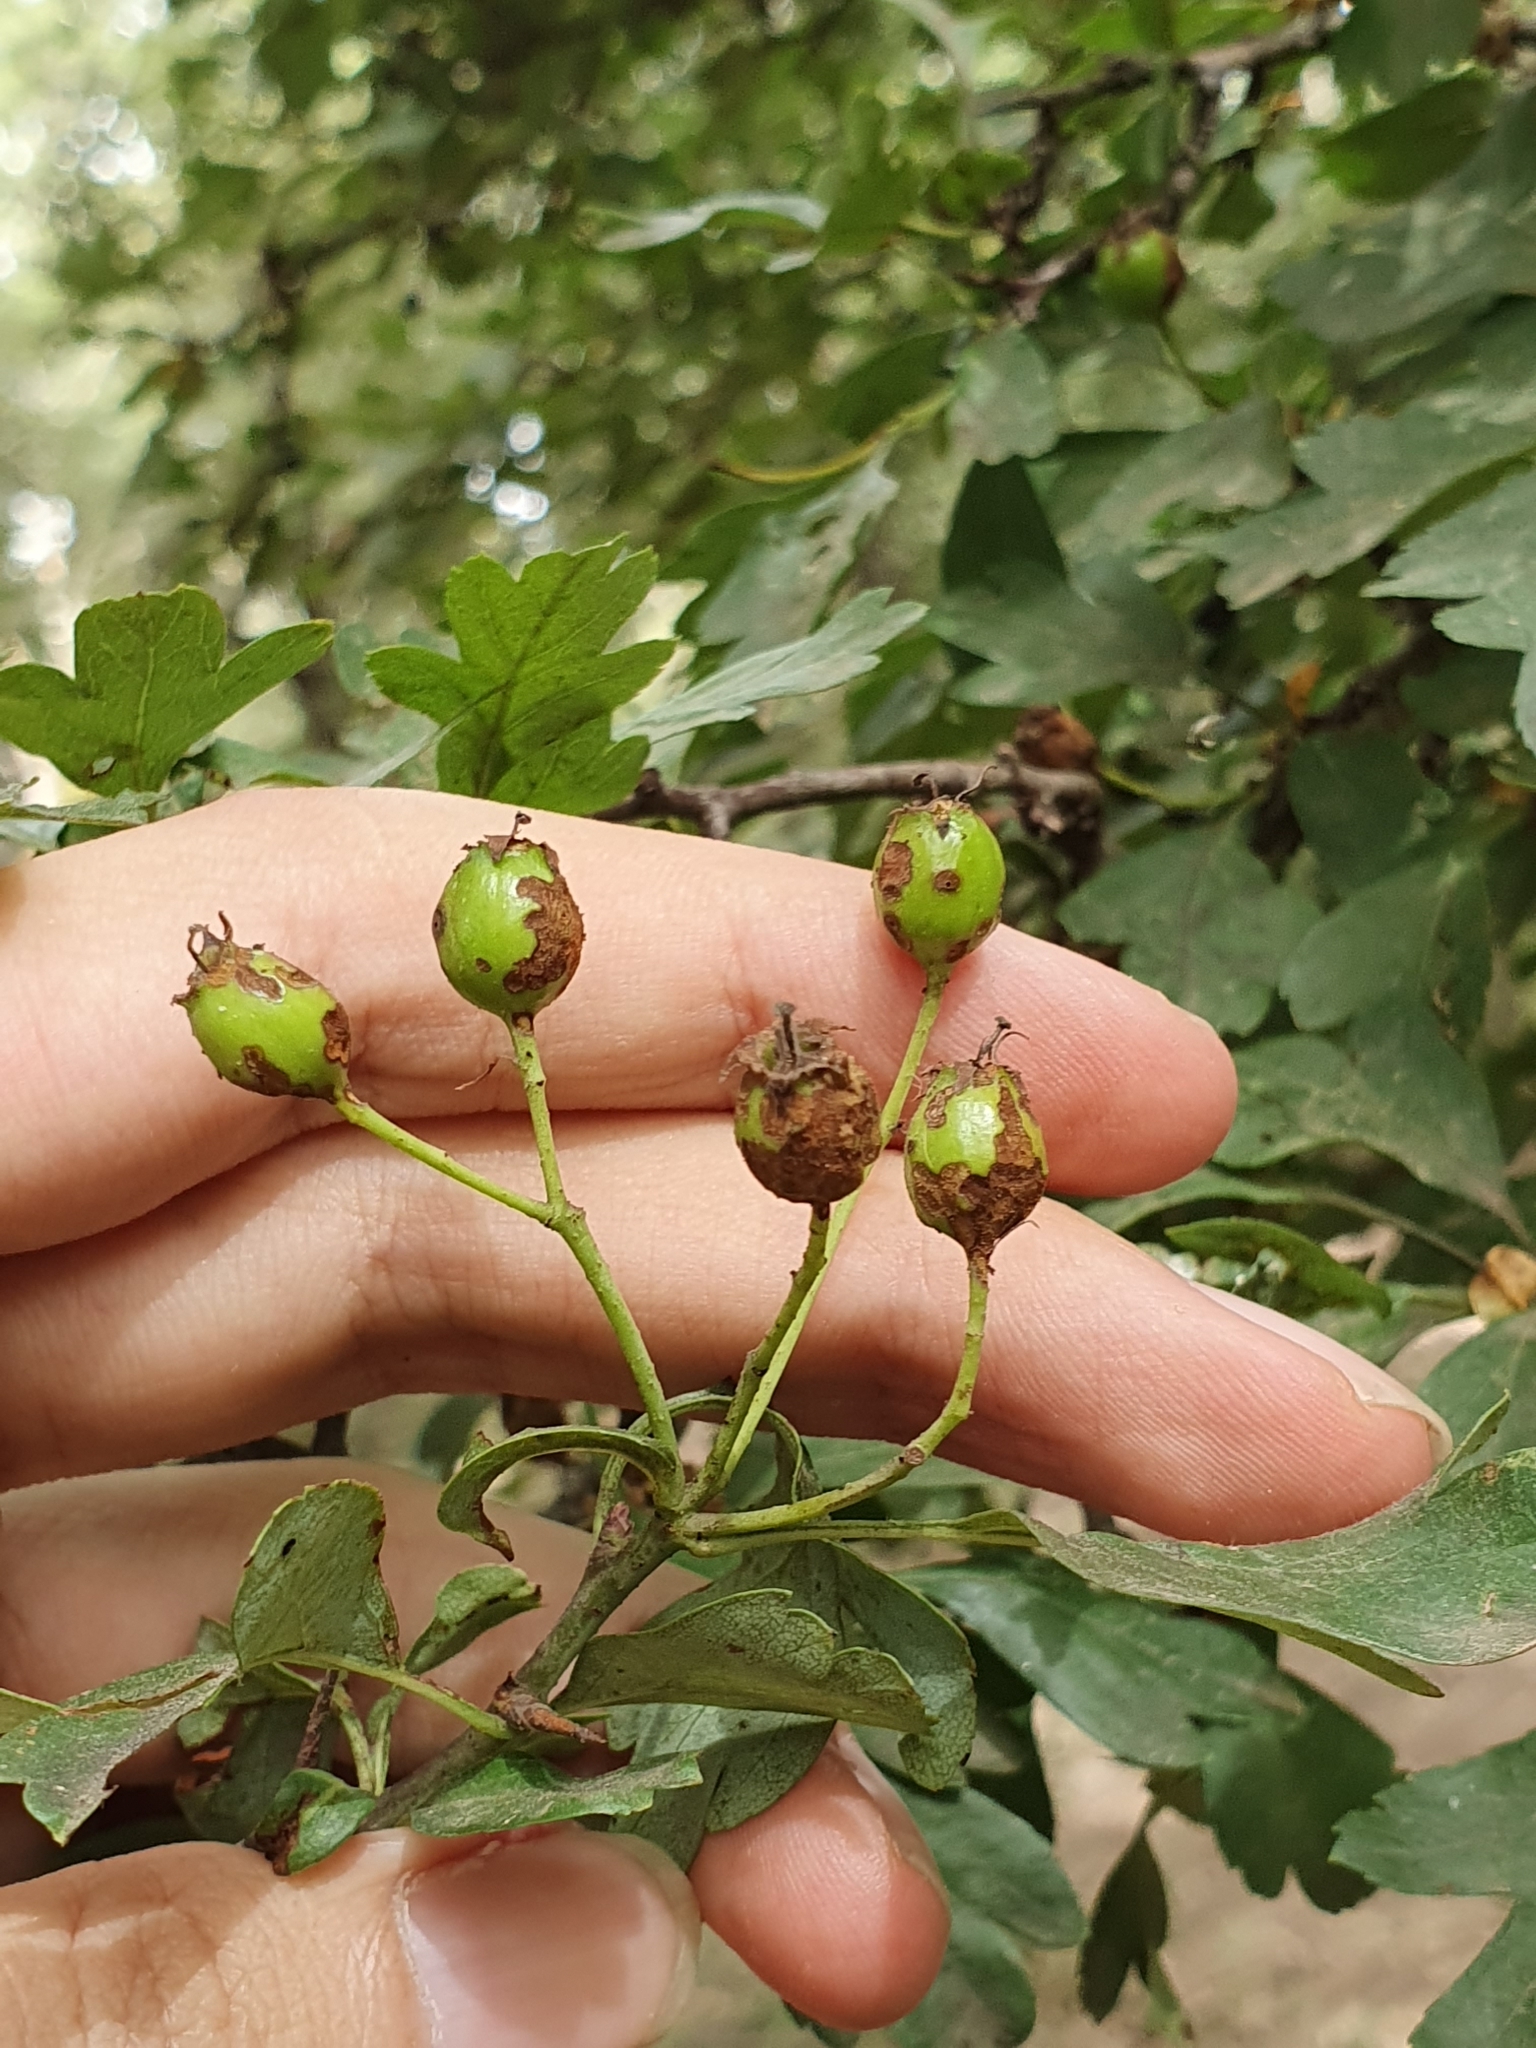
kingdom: Plantae
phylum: Tracheophyta
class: Magnoliopsida
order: Rosales
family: Rosaceae
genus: Crataegus
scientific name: Crataegus monogyna
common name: Hawthorn
